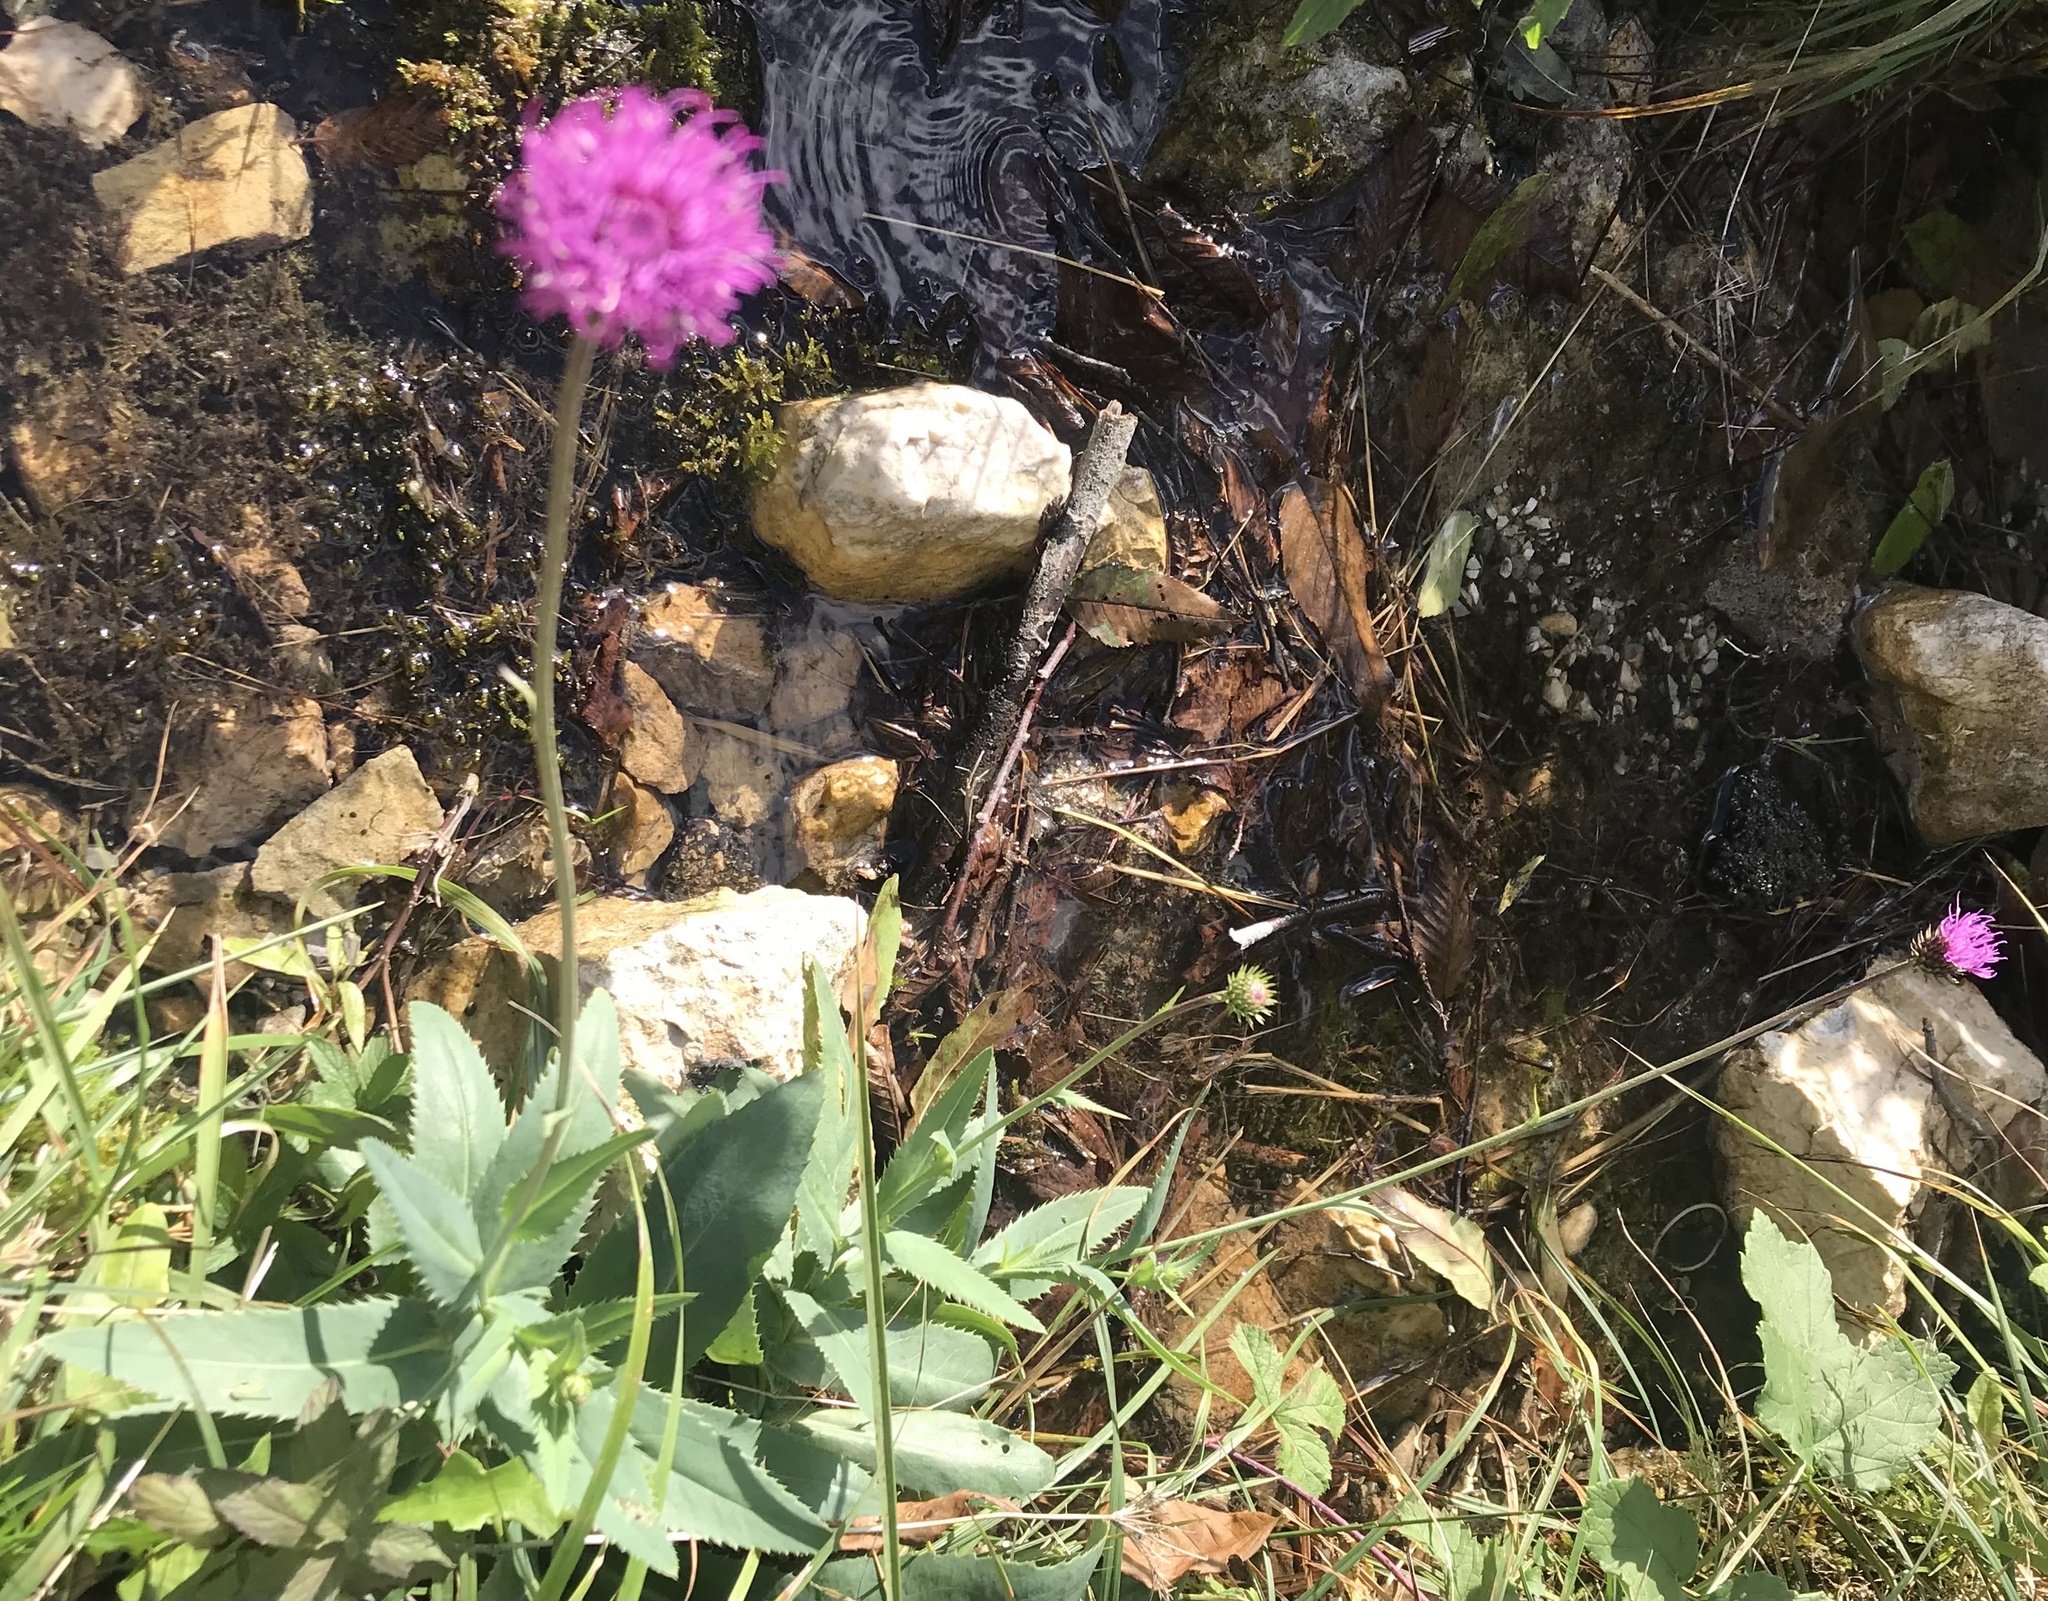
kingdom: Plantae
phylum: Tracheophyta
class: Magnoliopsida
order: Asterales
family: Asteraceae
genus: Carduus
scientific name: Carduus defloratus
